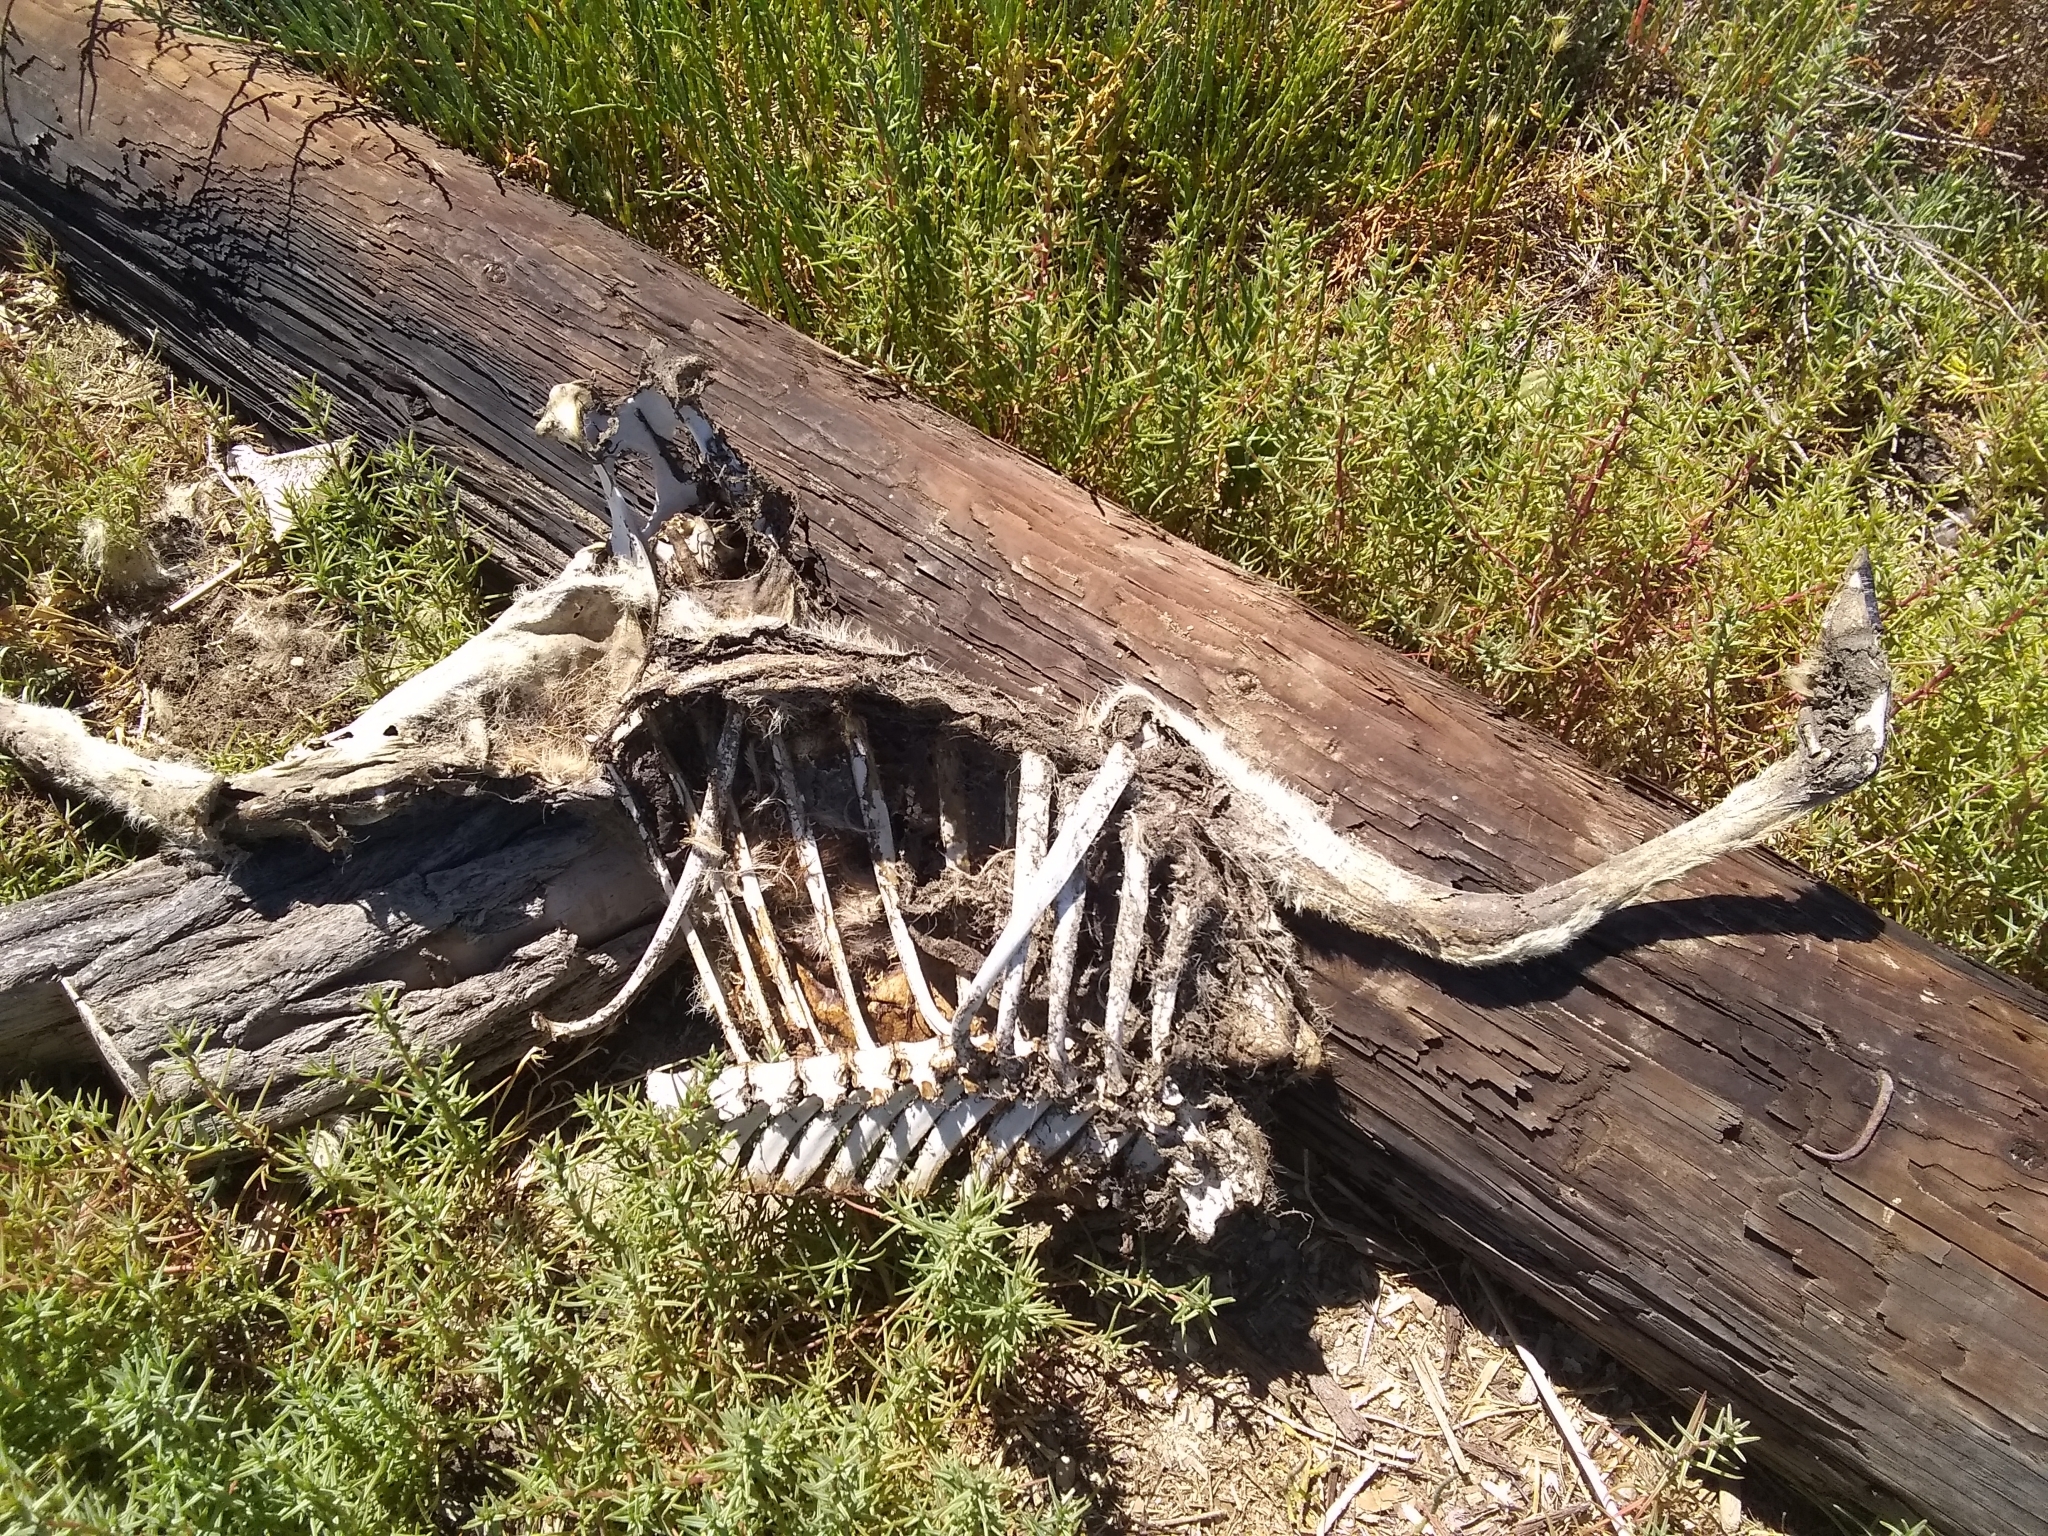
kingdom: Animalia
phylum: Chordata
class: Mammalia
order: Artiodactyla
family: Cervidae
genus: Odocoileus
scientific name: Odocoileus hemionus
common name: Mule deer
